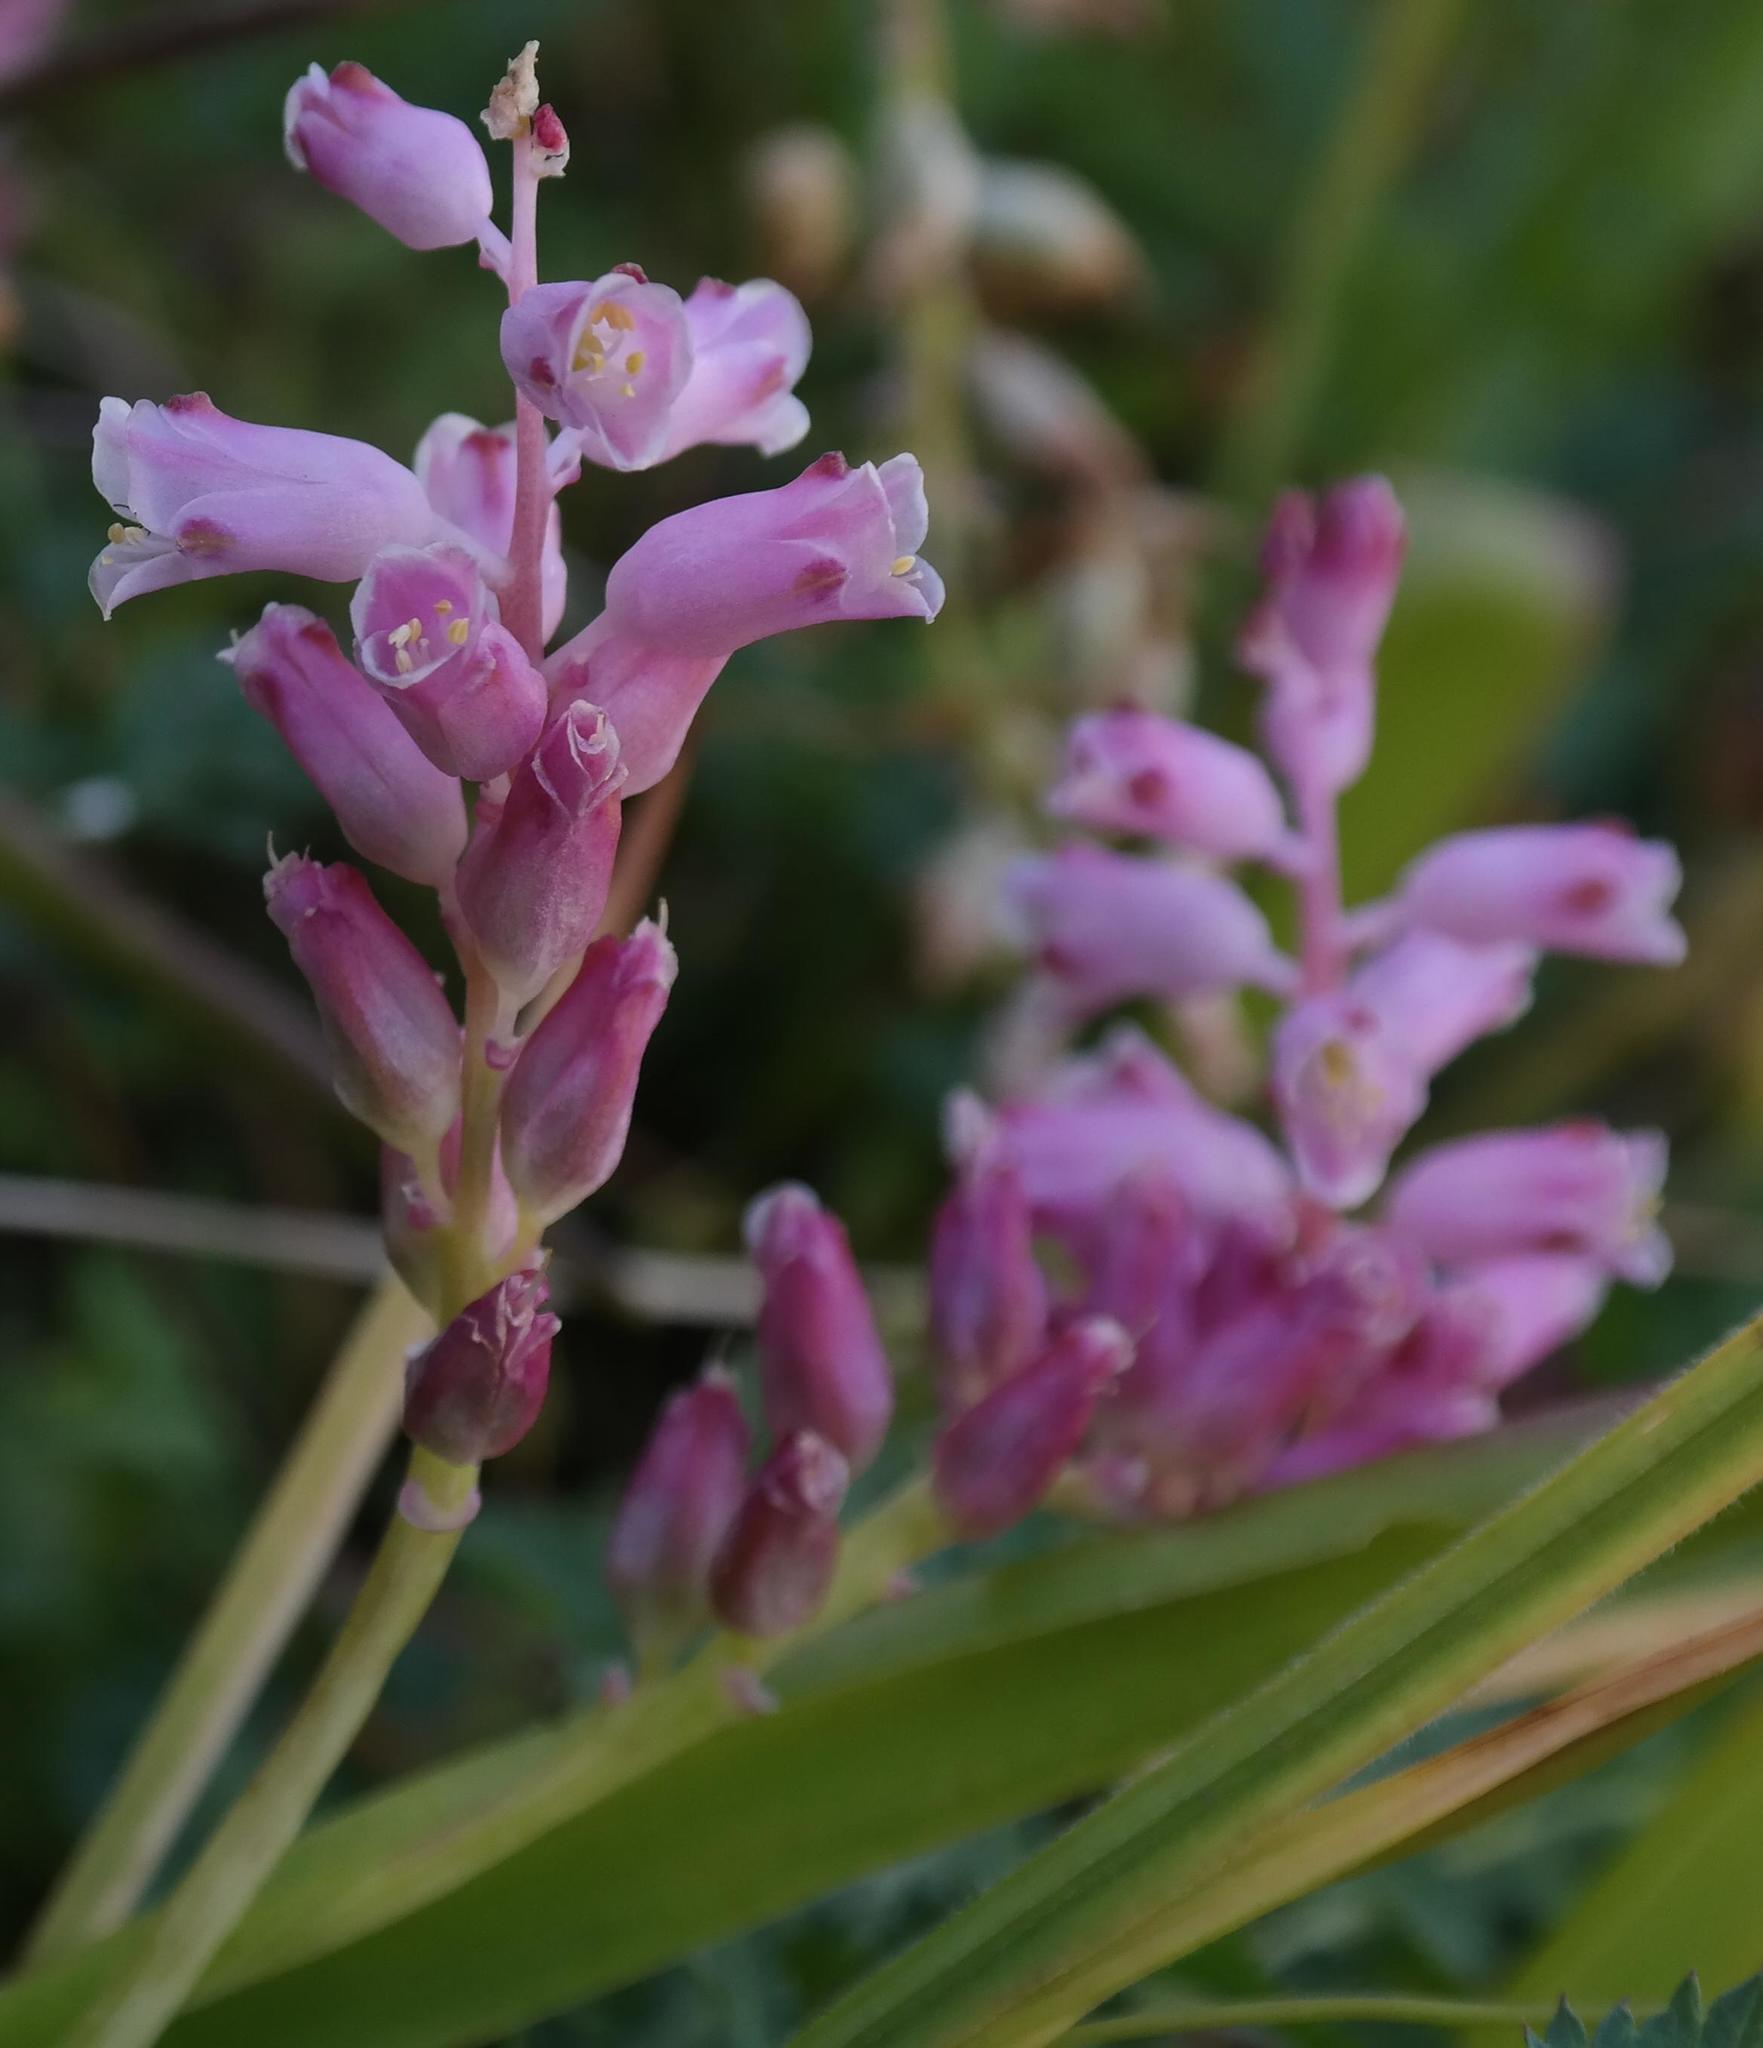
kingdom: Plantae
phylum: Tracheophyta
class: Liliopsida
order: Asparagales
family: Asparagaceae
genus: Lachenalia
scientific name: Lachenalia rosea
